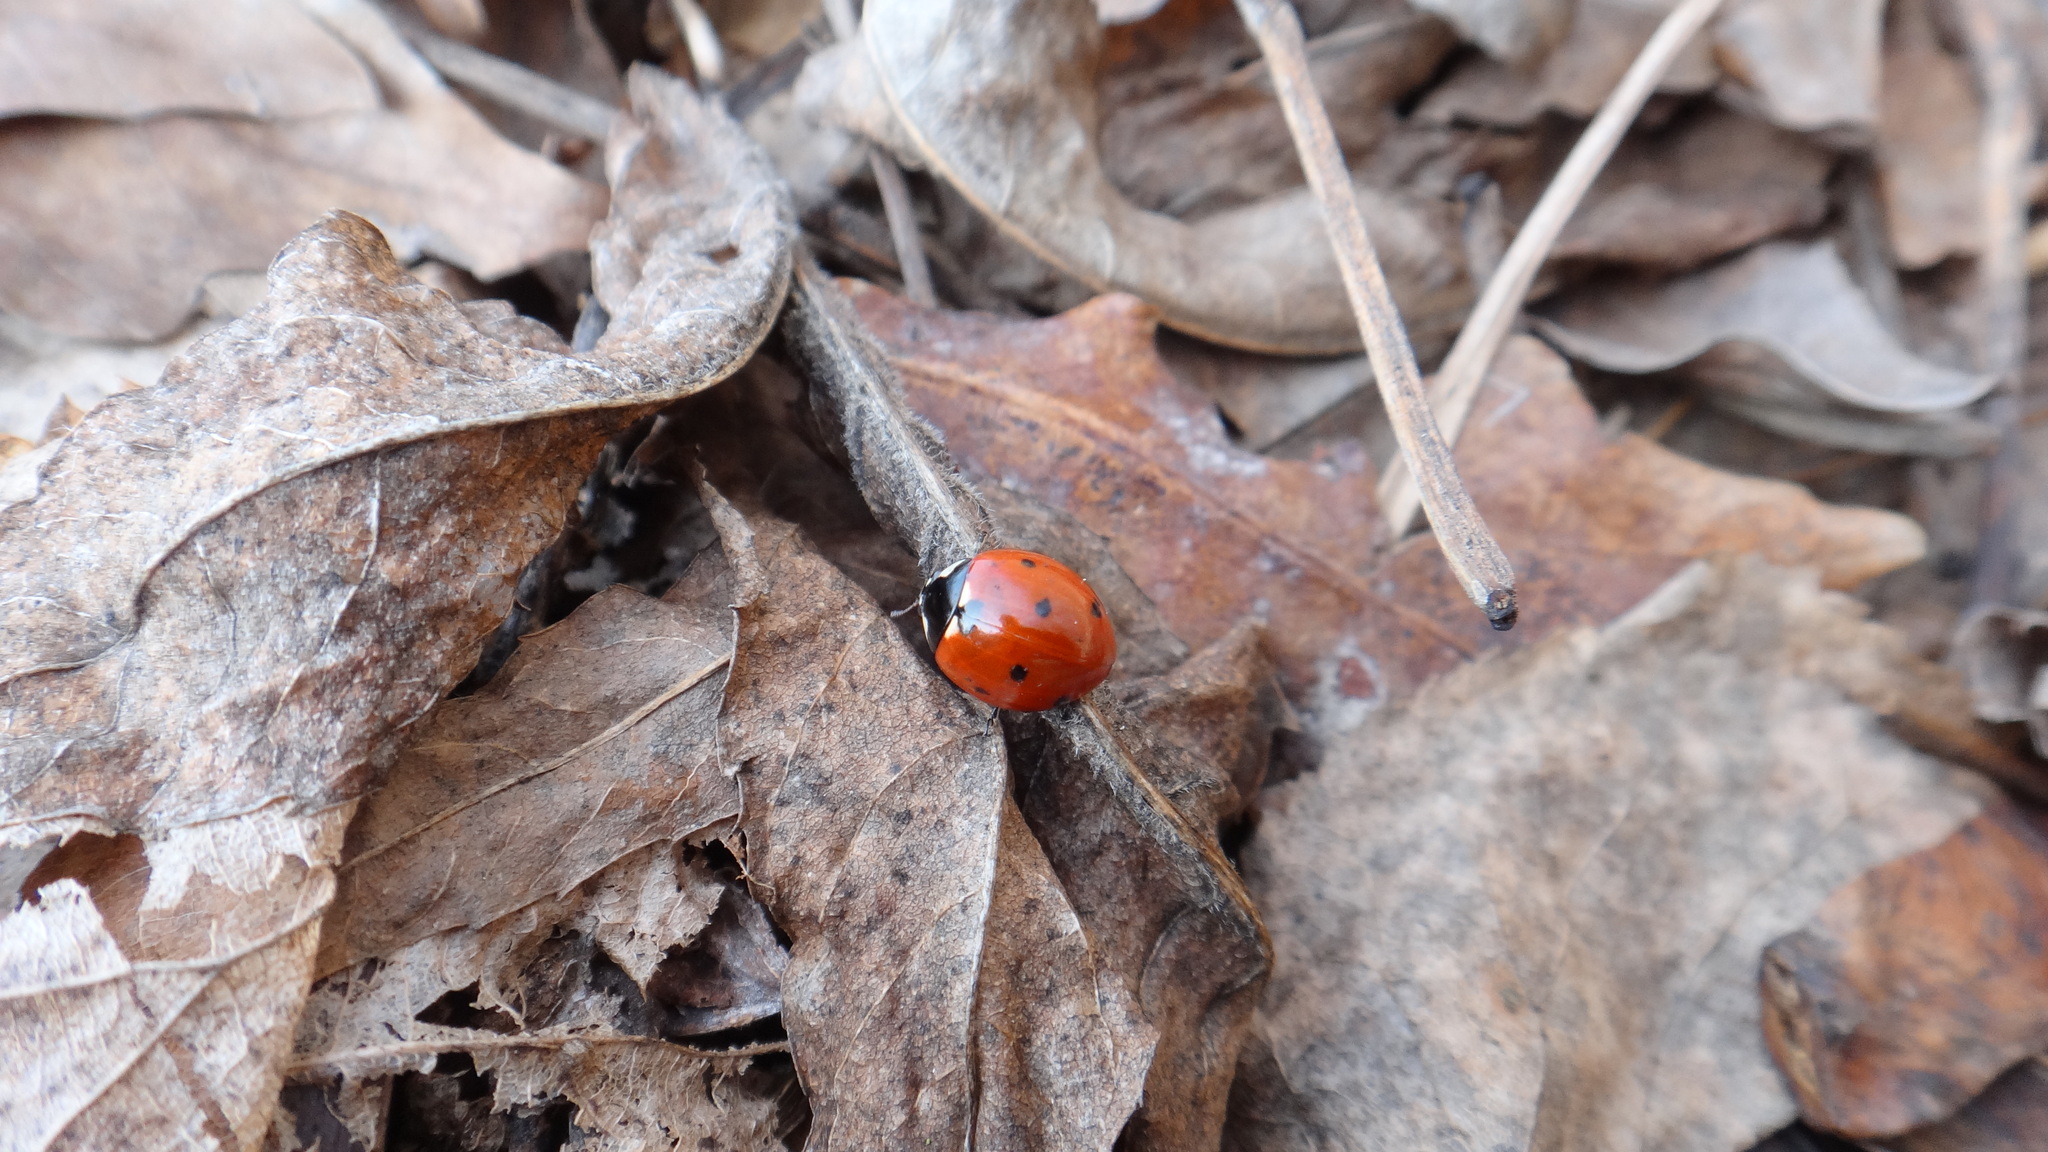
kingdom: Animalia
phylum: Arthropoda
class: Insecta
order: Coleoptera
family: Coccinellidae
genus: Coccinella
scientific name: Coccinella septempunctata
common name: Sevenspotted lady beetle
